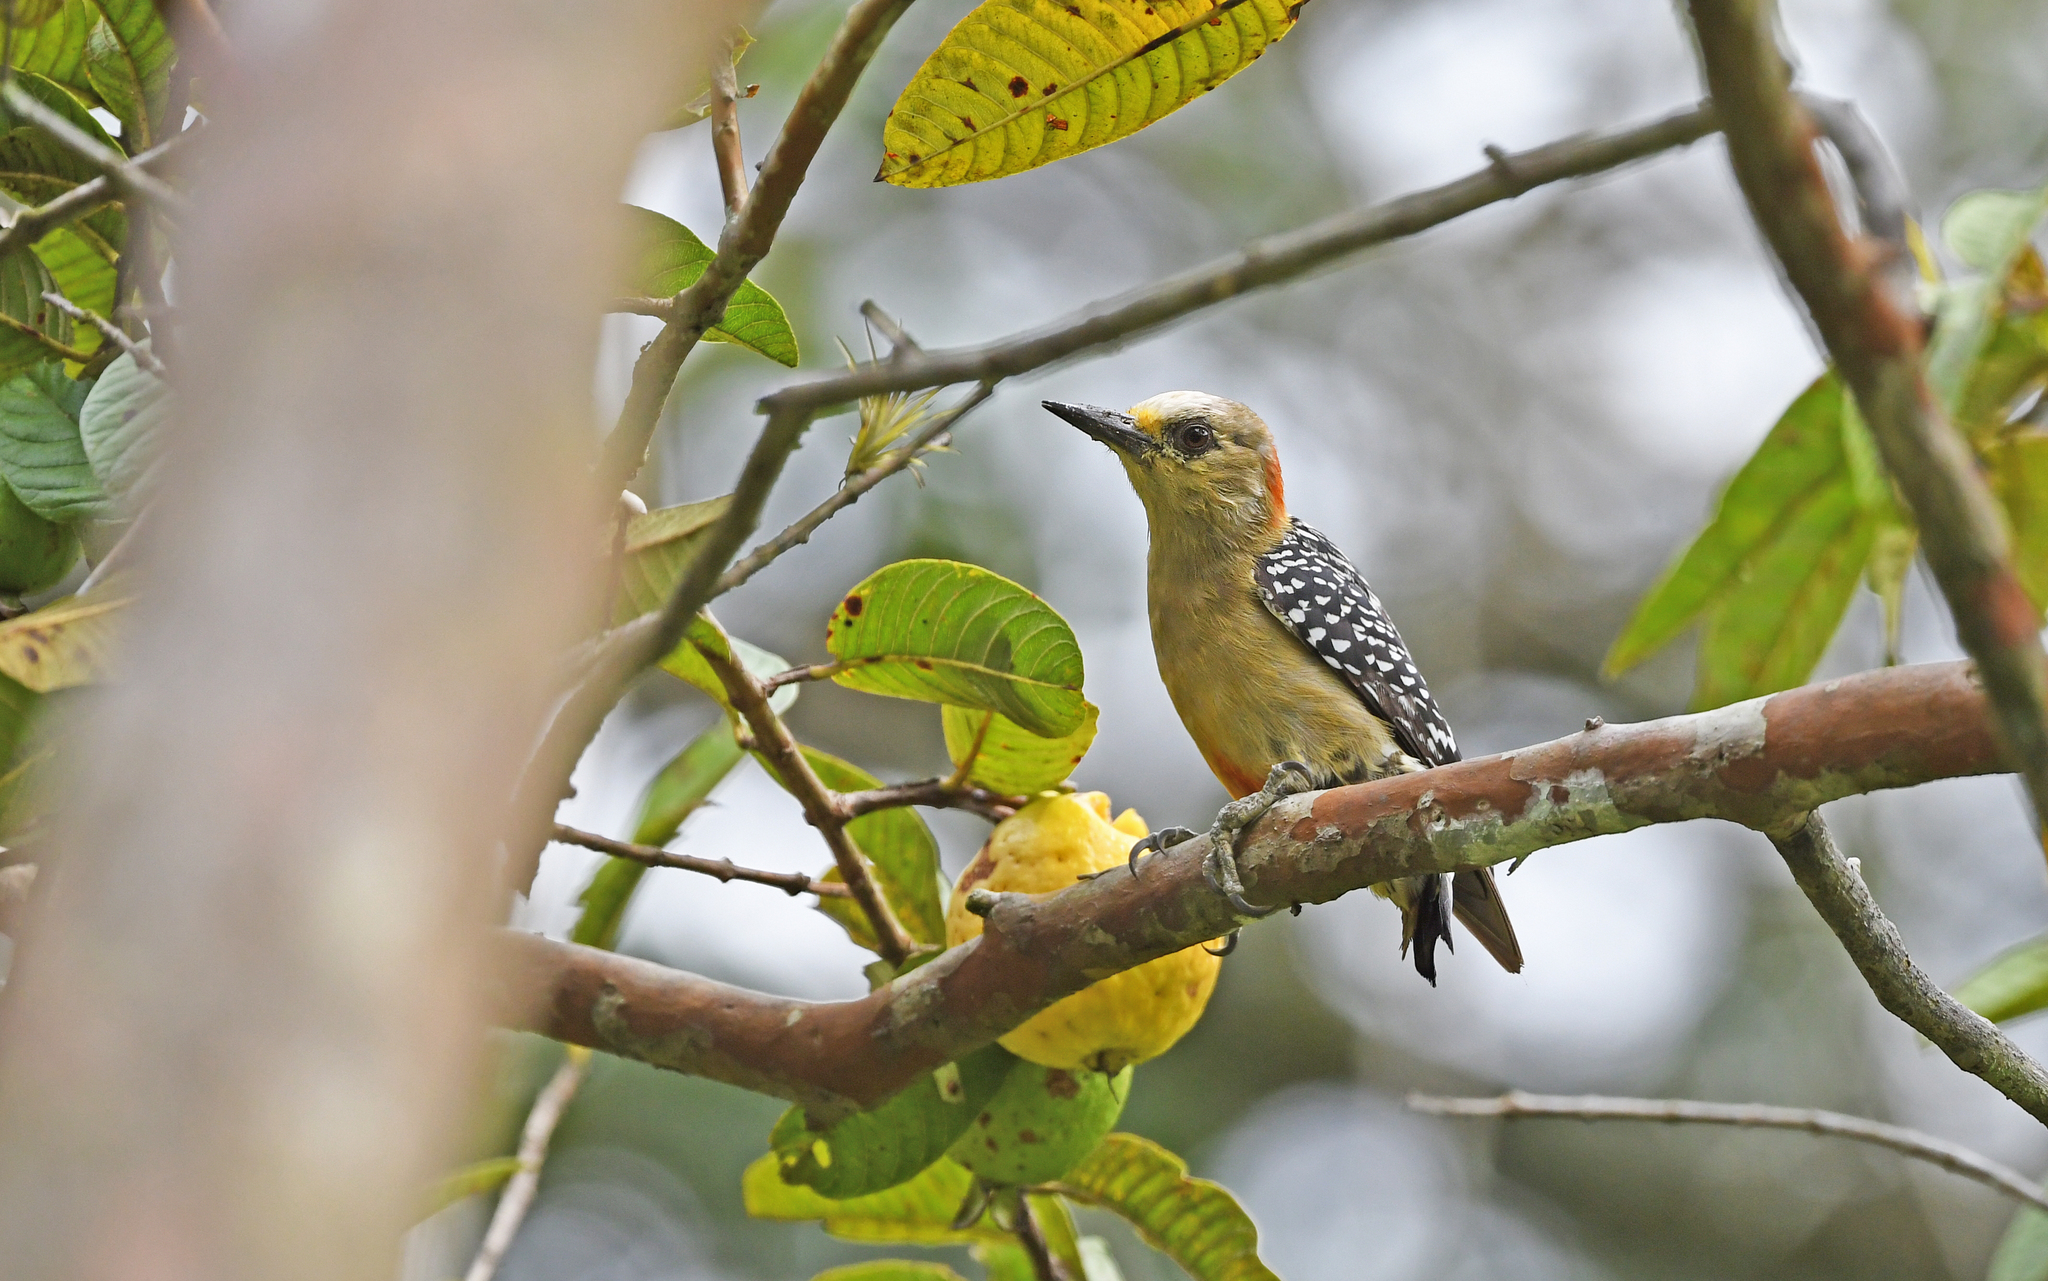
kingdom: Animalia
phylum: Chordata
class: Aves
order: Piciformes
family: Picidae
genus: Melanerpes
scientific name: Melanerpes rubricapillus
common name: Red-crowned woodpecker
